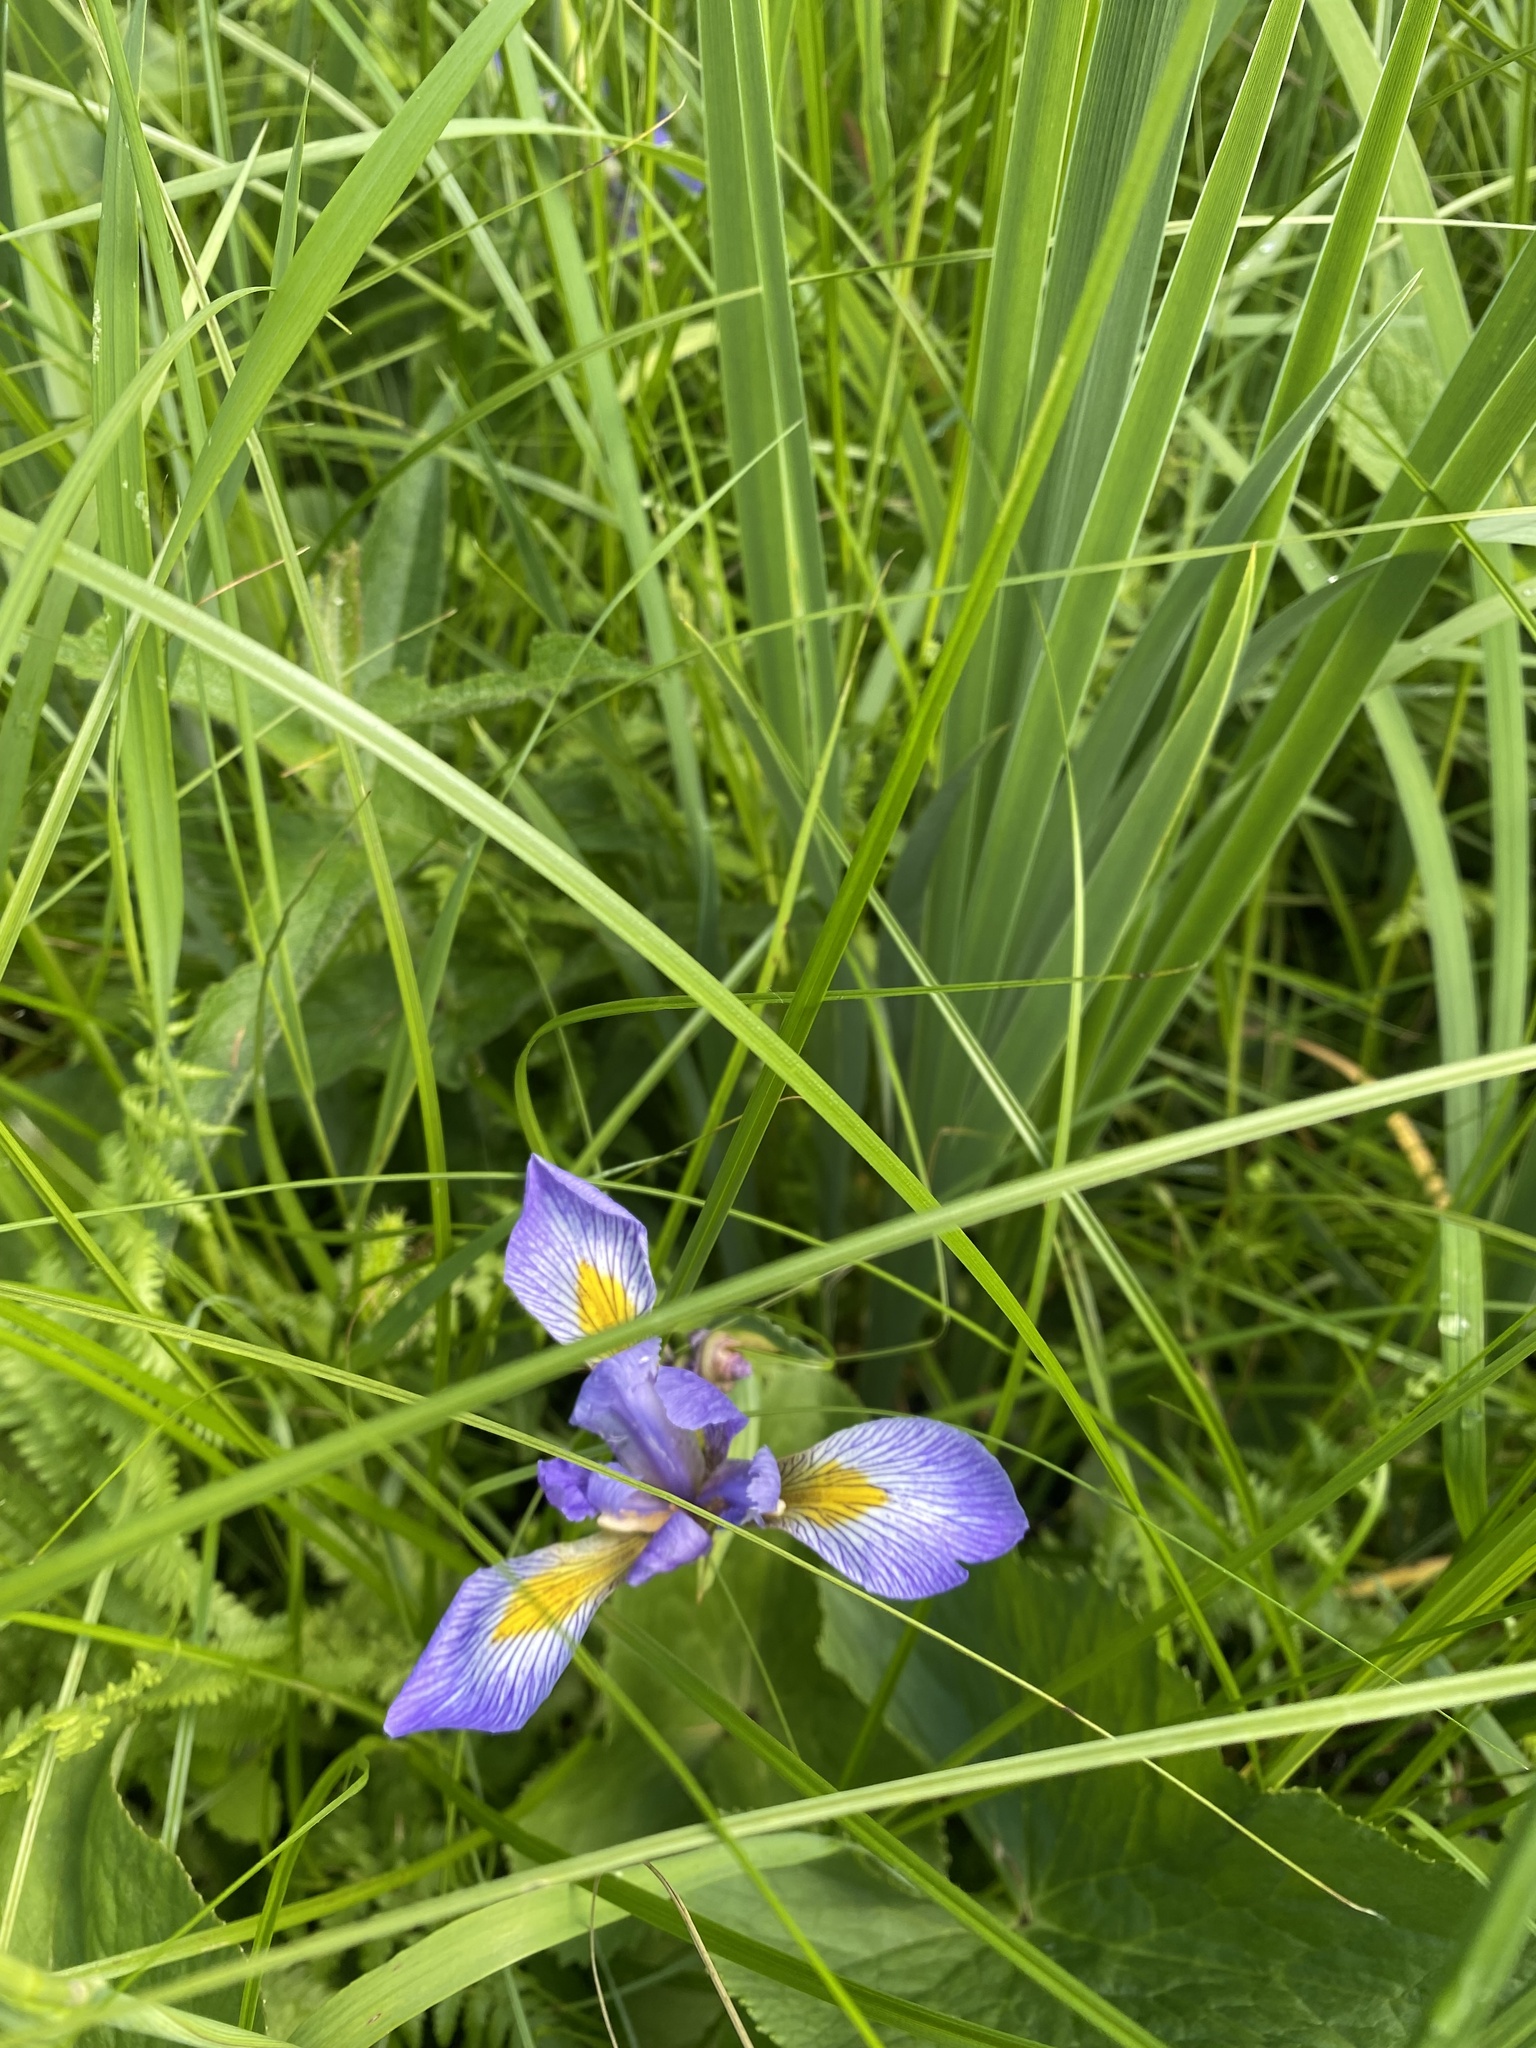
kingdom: Plantae
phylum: Tracheophyta
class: Liliopsida
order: Asparagales
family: Iridaceae
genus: Iris
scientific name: Iris virginica
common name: Southern blue flag
